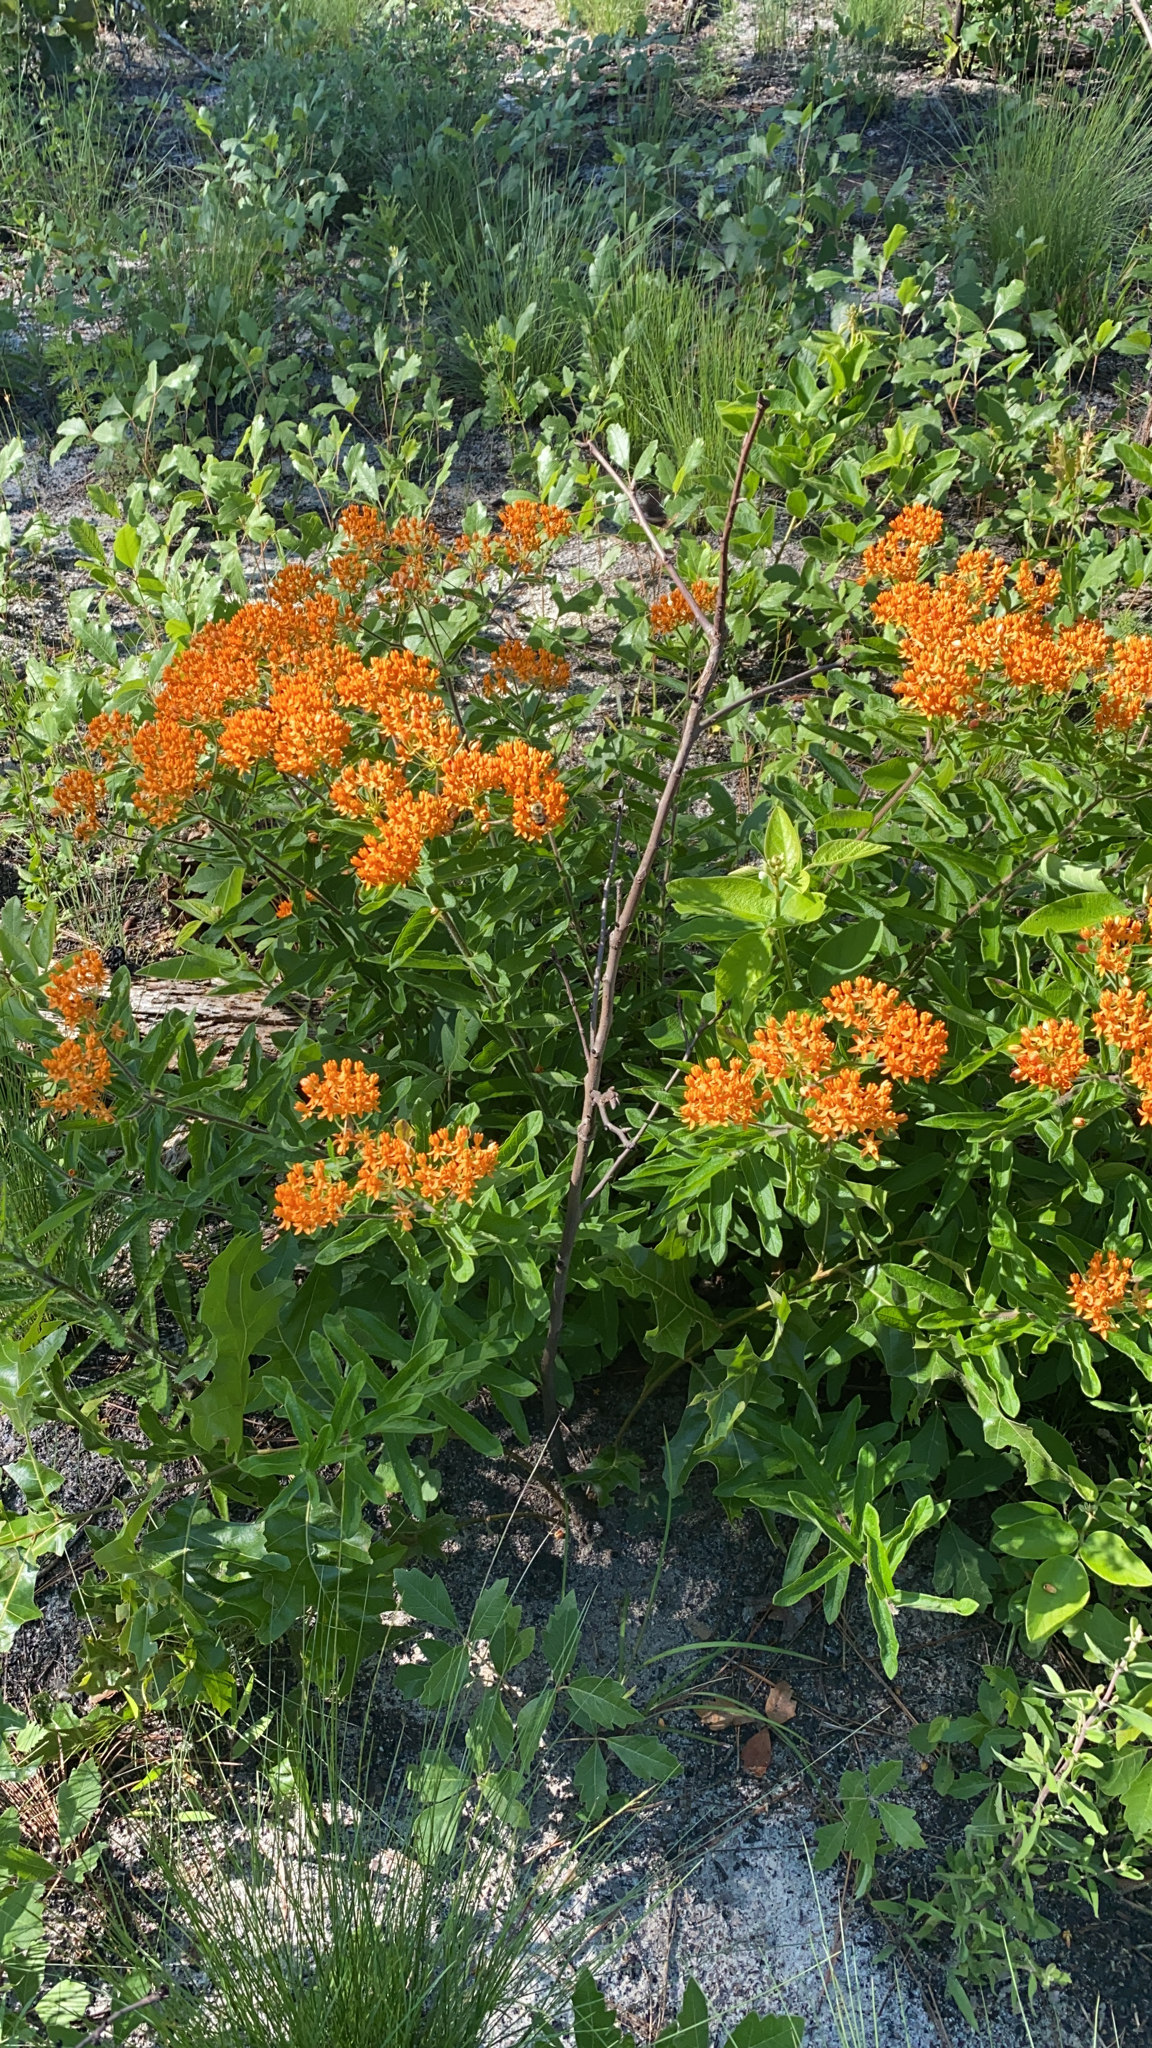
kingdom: Plantae
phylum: Tracheophyta
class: Magnoliopsida
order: Gentianales
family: Apocynaceae
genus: Asclepias
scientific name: Asclepias tuberosa
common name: Butterfly milkweed
